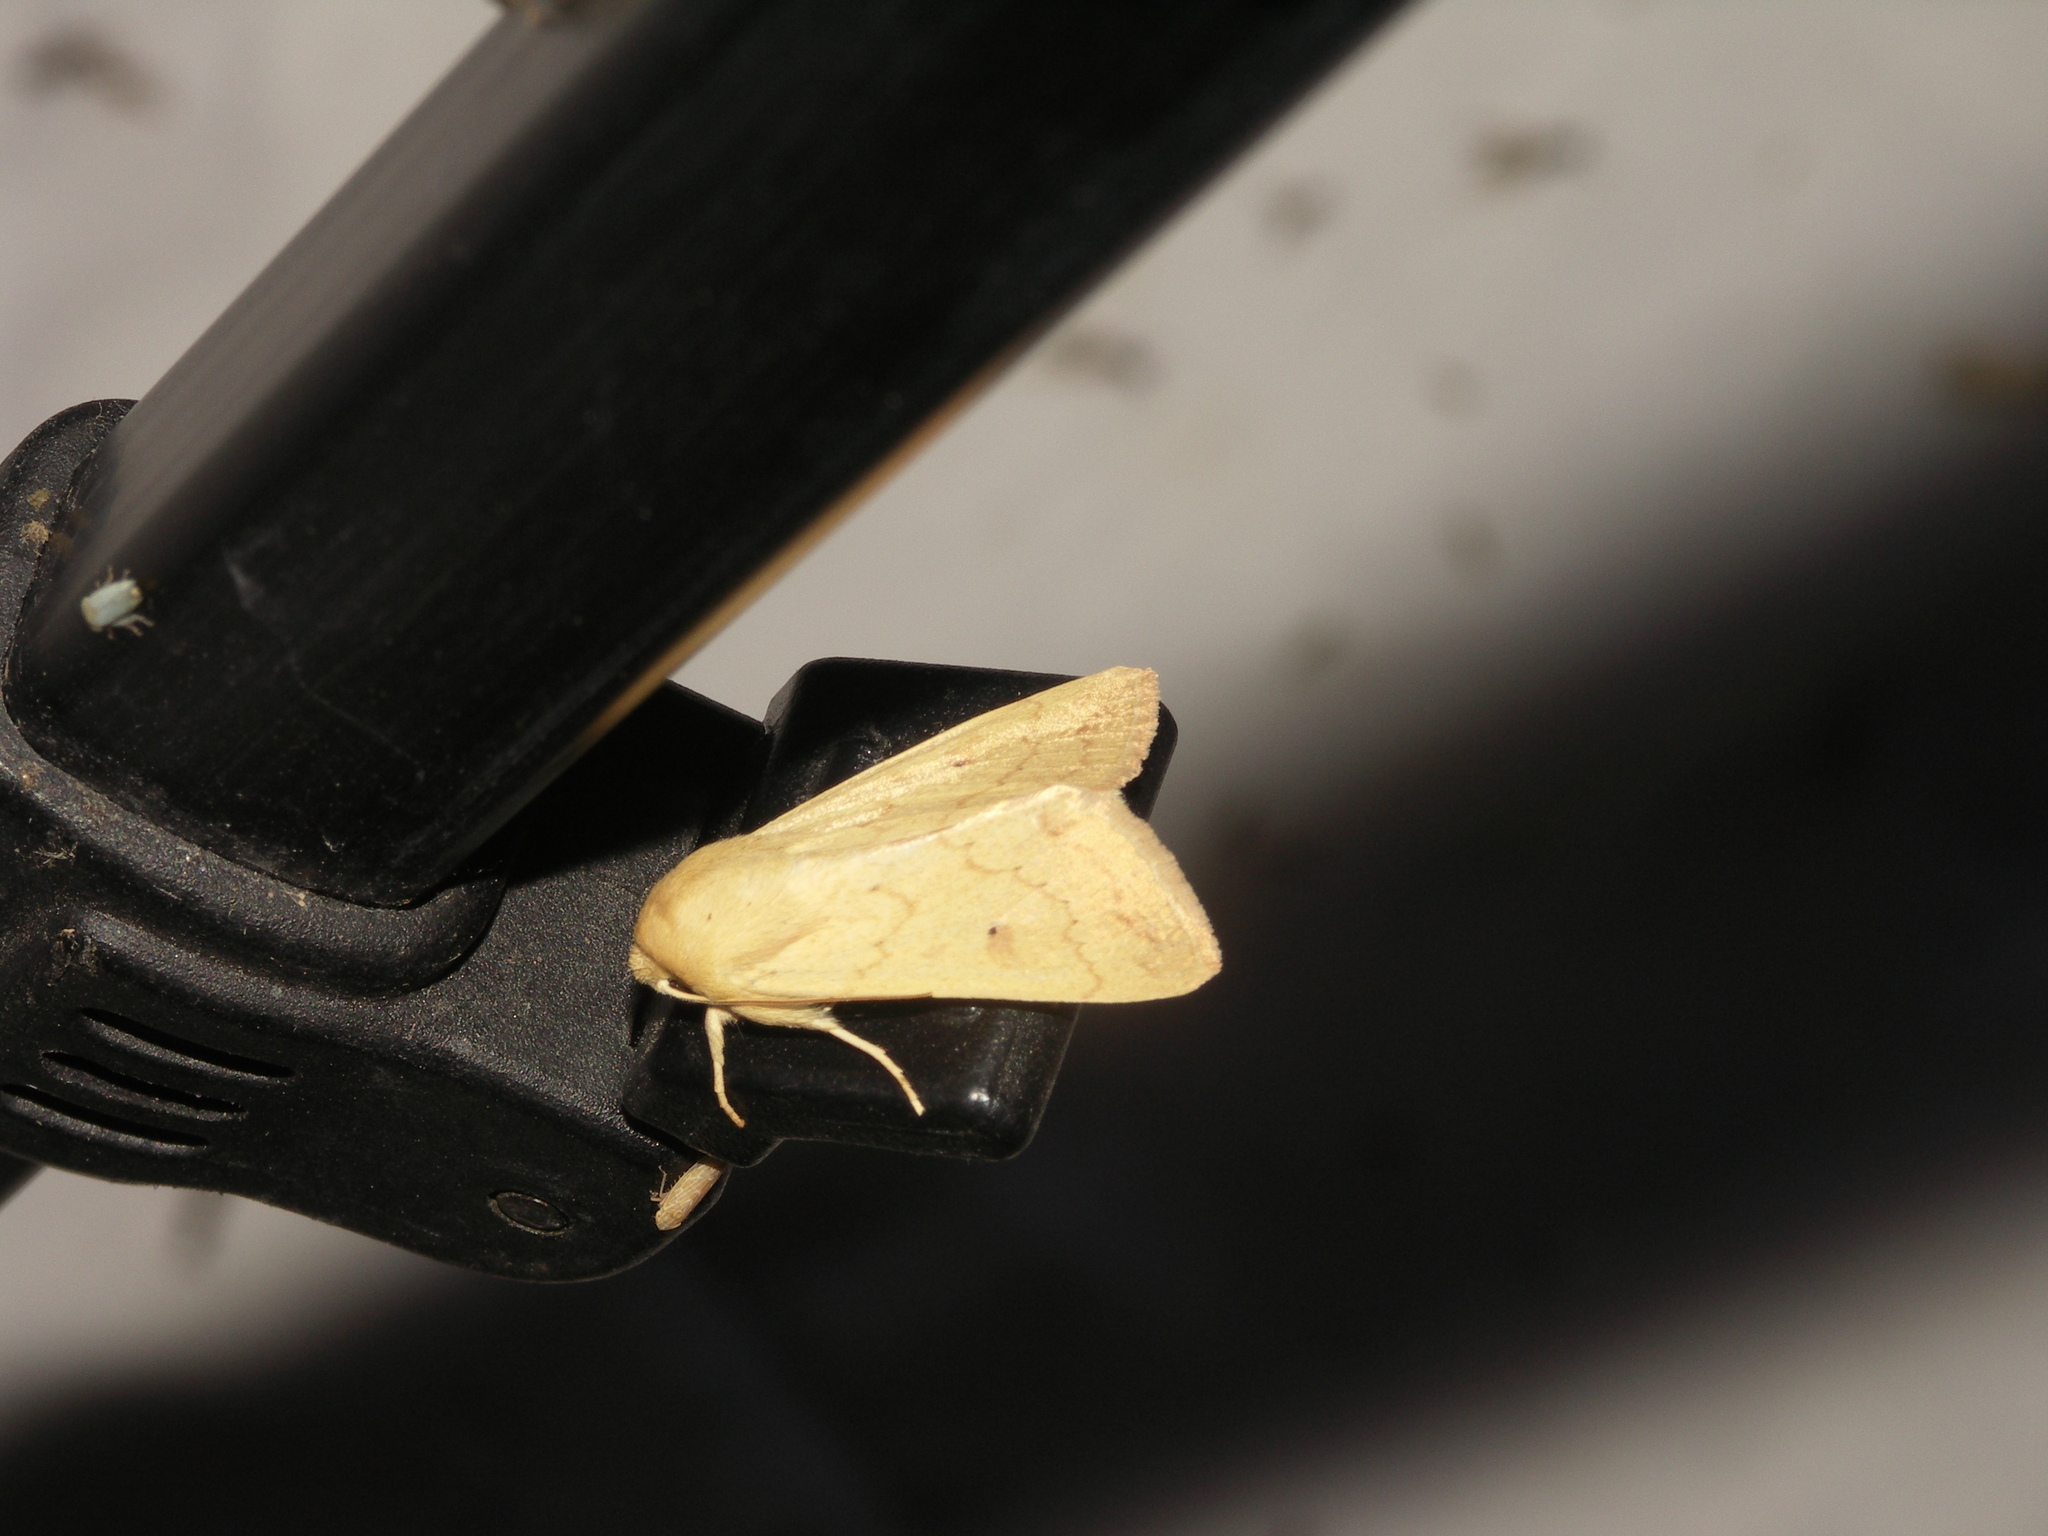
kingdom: Animalia
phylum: Arthropoda
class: Insecta
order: Lepidoptera
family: Noctuidae
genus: Mythimna
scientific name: Mythimna vitellina
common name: Delicate
